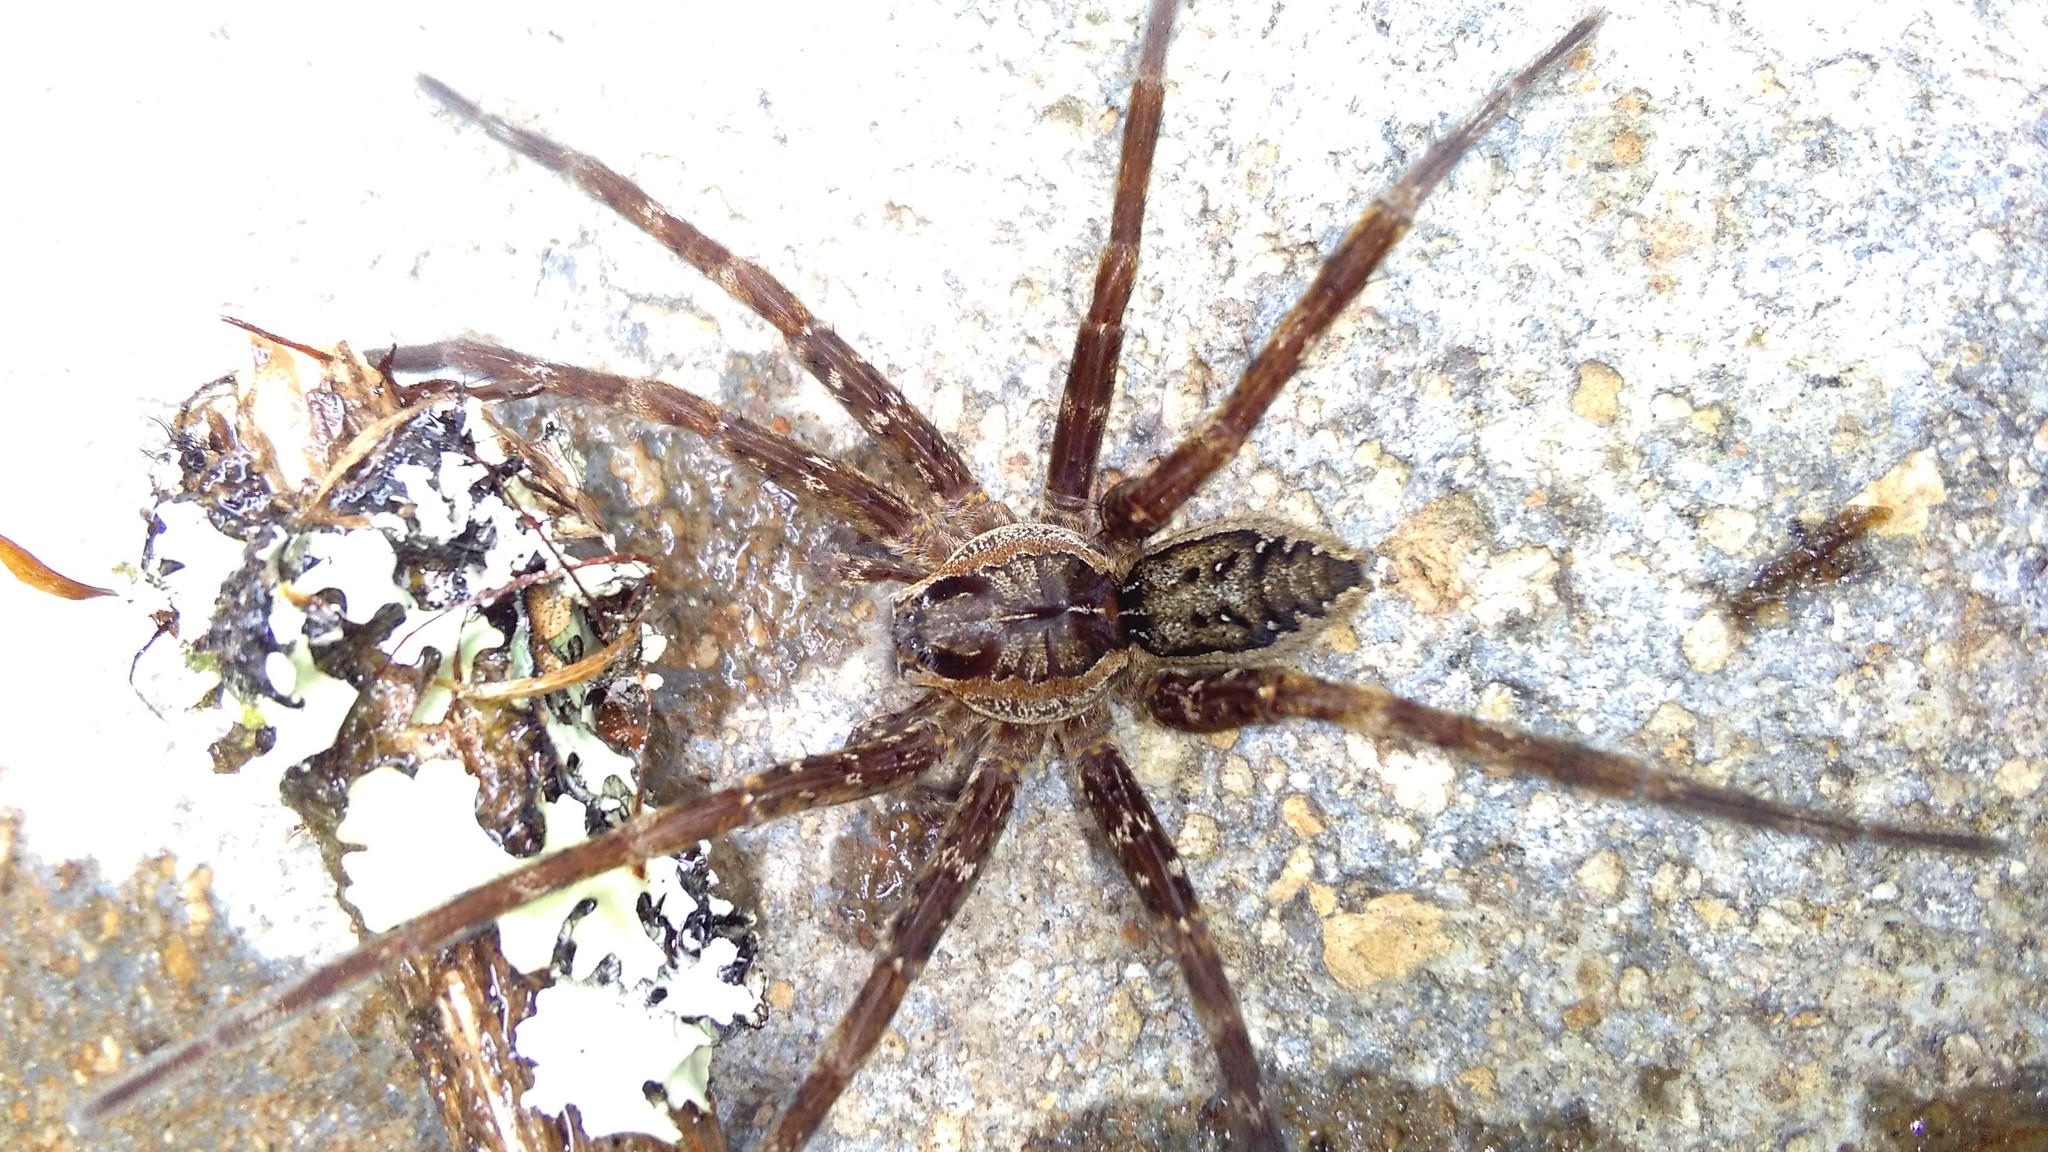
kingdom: Animalia
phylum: Arthropoda
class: Arachnida
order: Araneae
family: Pisauridae
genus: Dolomedes
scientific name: Dolomedes dondalei
